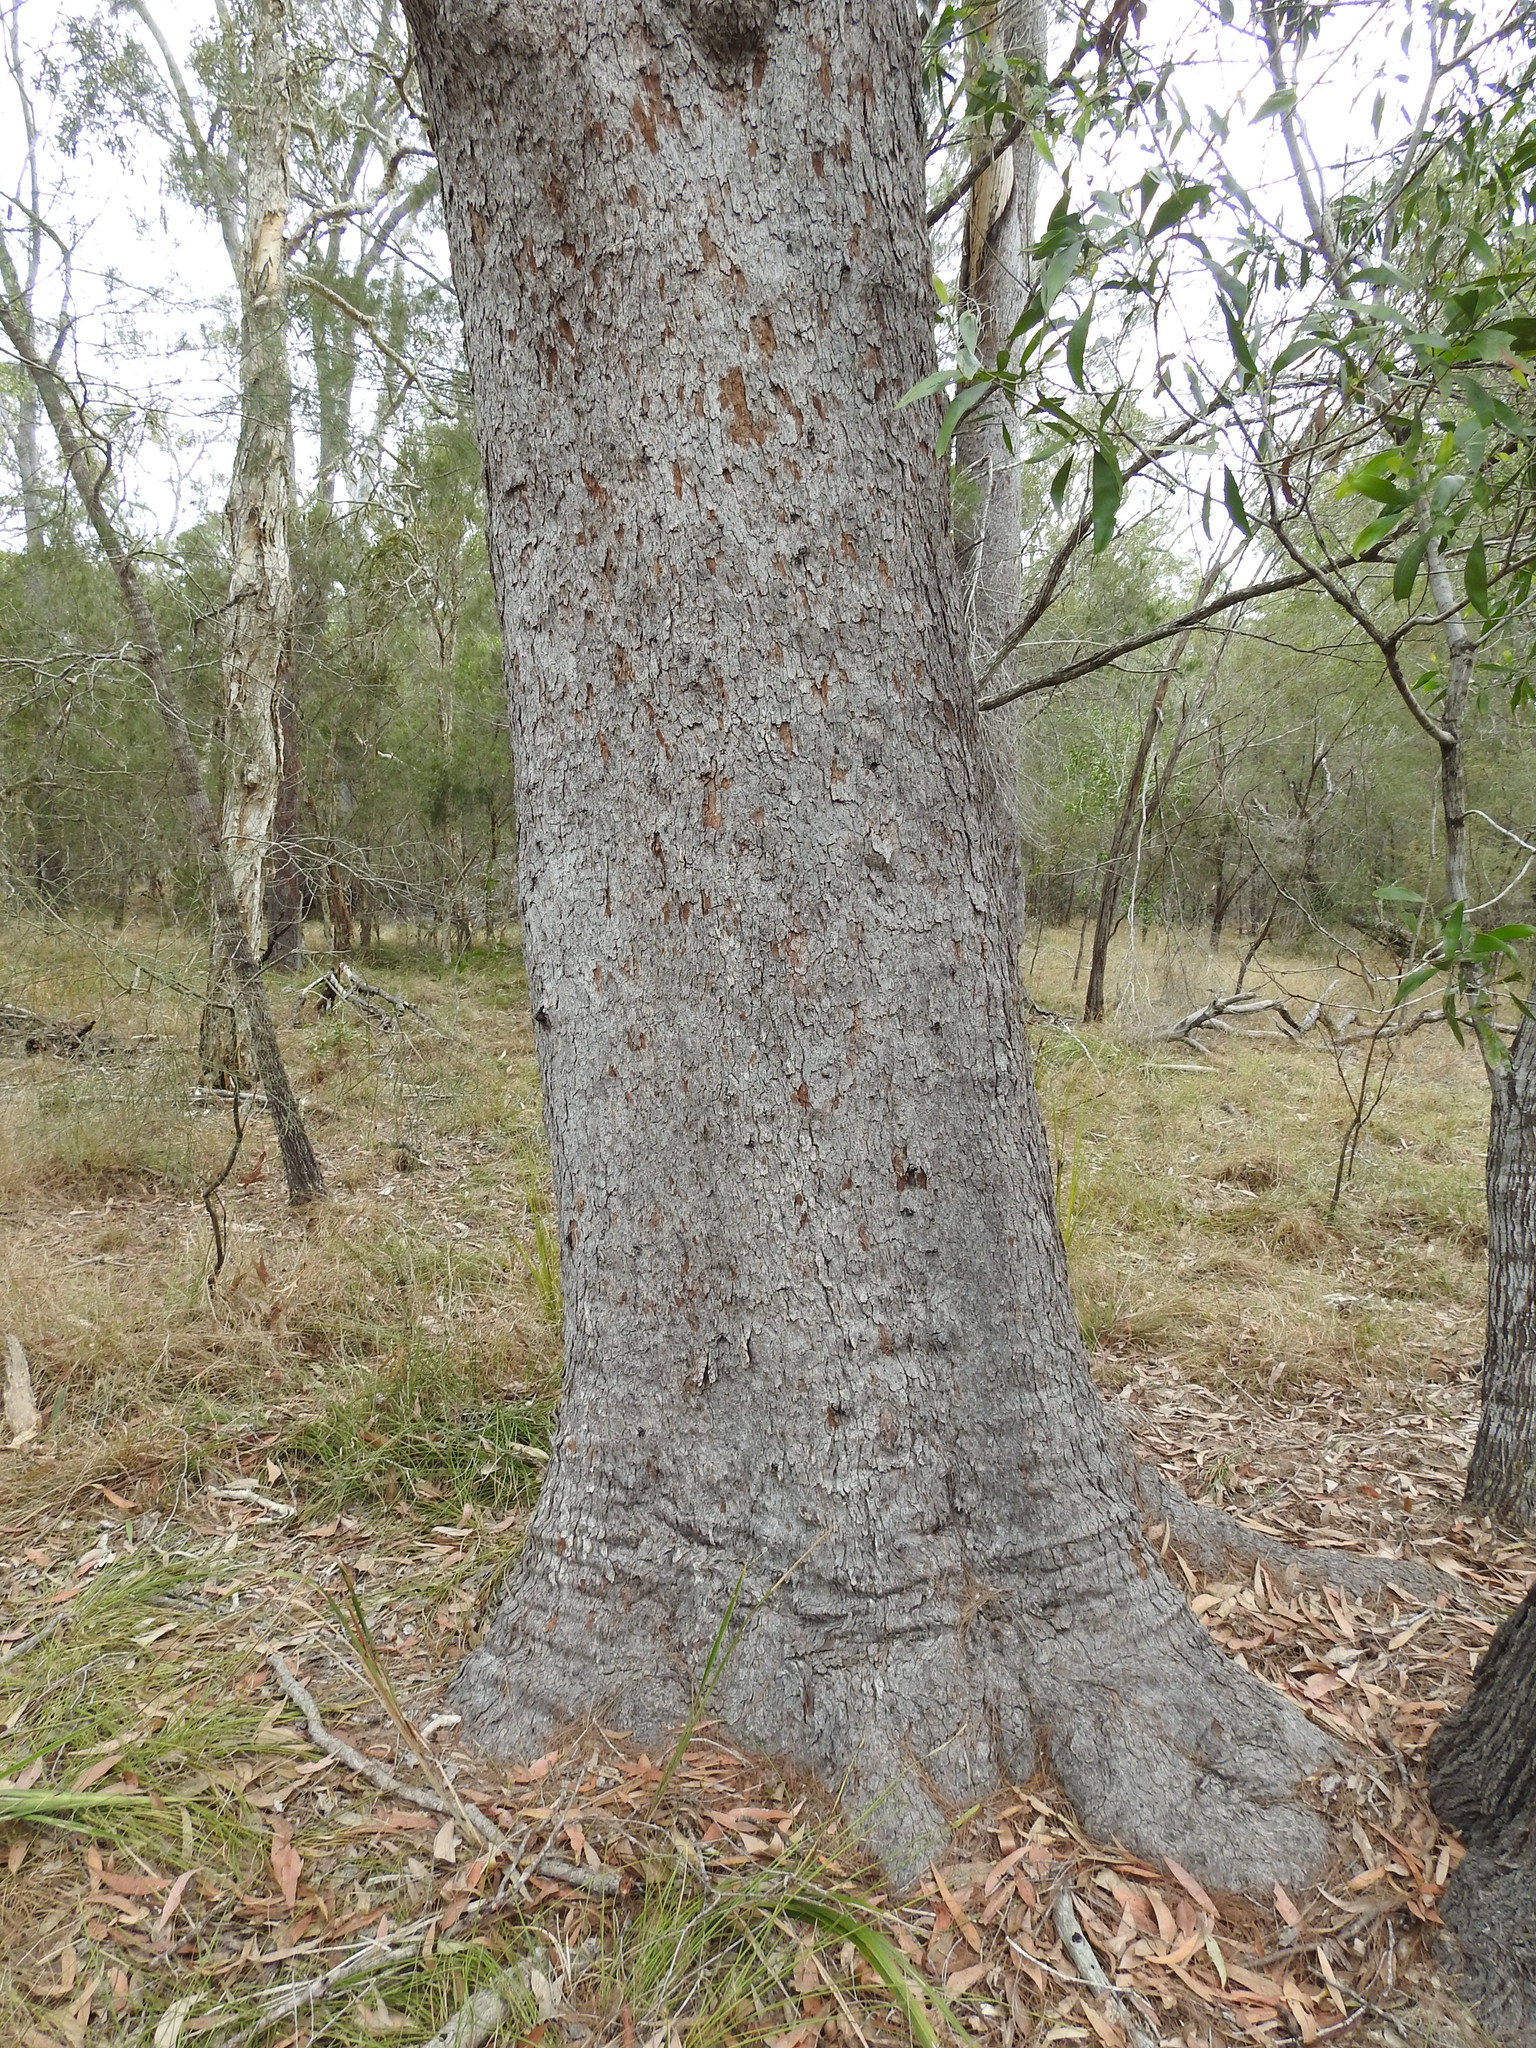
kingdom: Plantae
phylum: Tracheophyta
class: Magnoliopsida
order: Myrtales
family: Myrtaceae
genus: Corymbia
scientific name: Corymbia intermedia
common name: Pink-bloodwood
